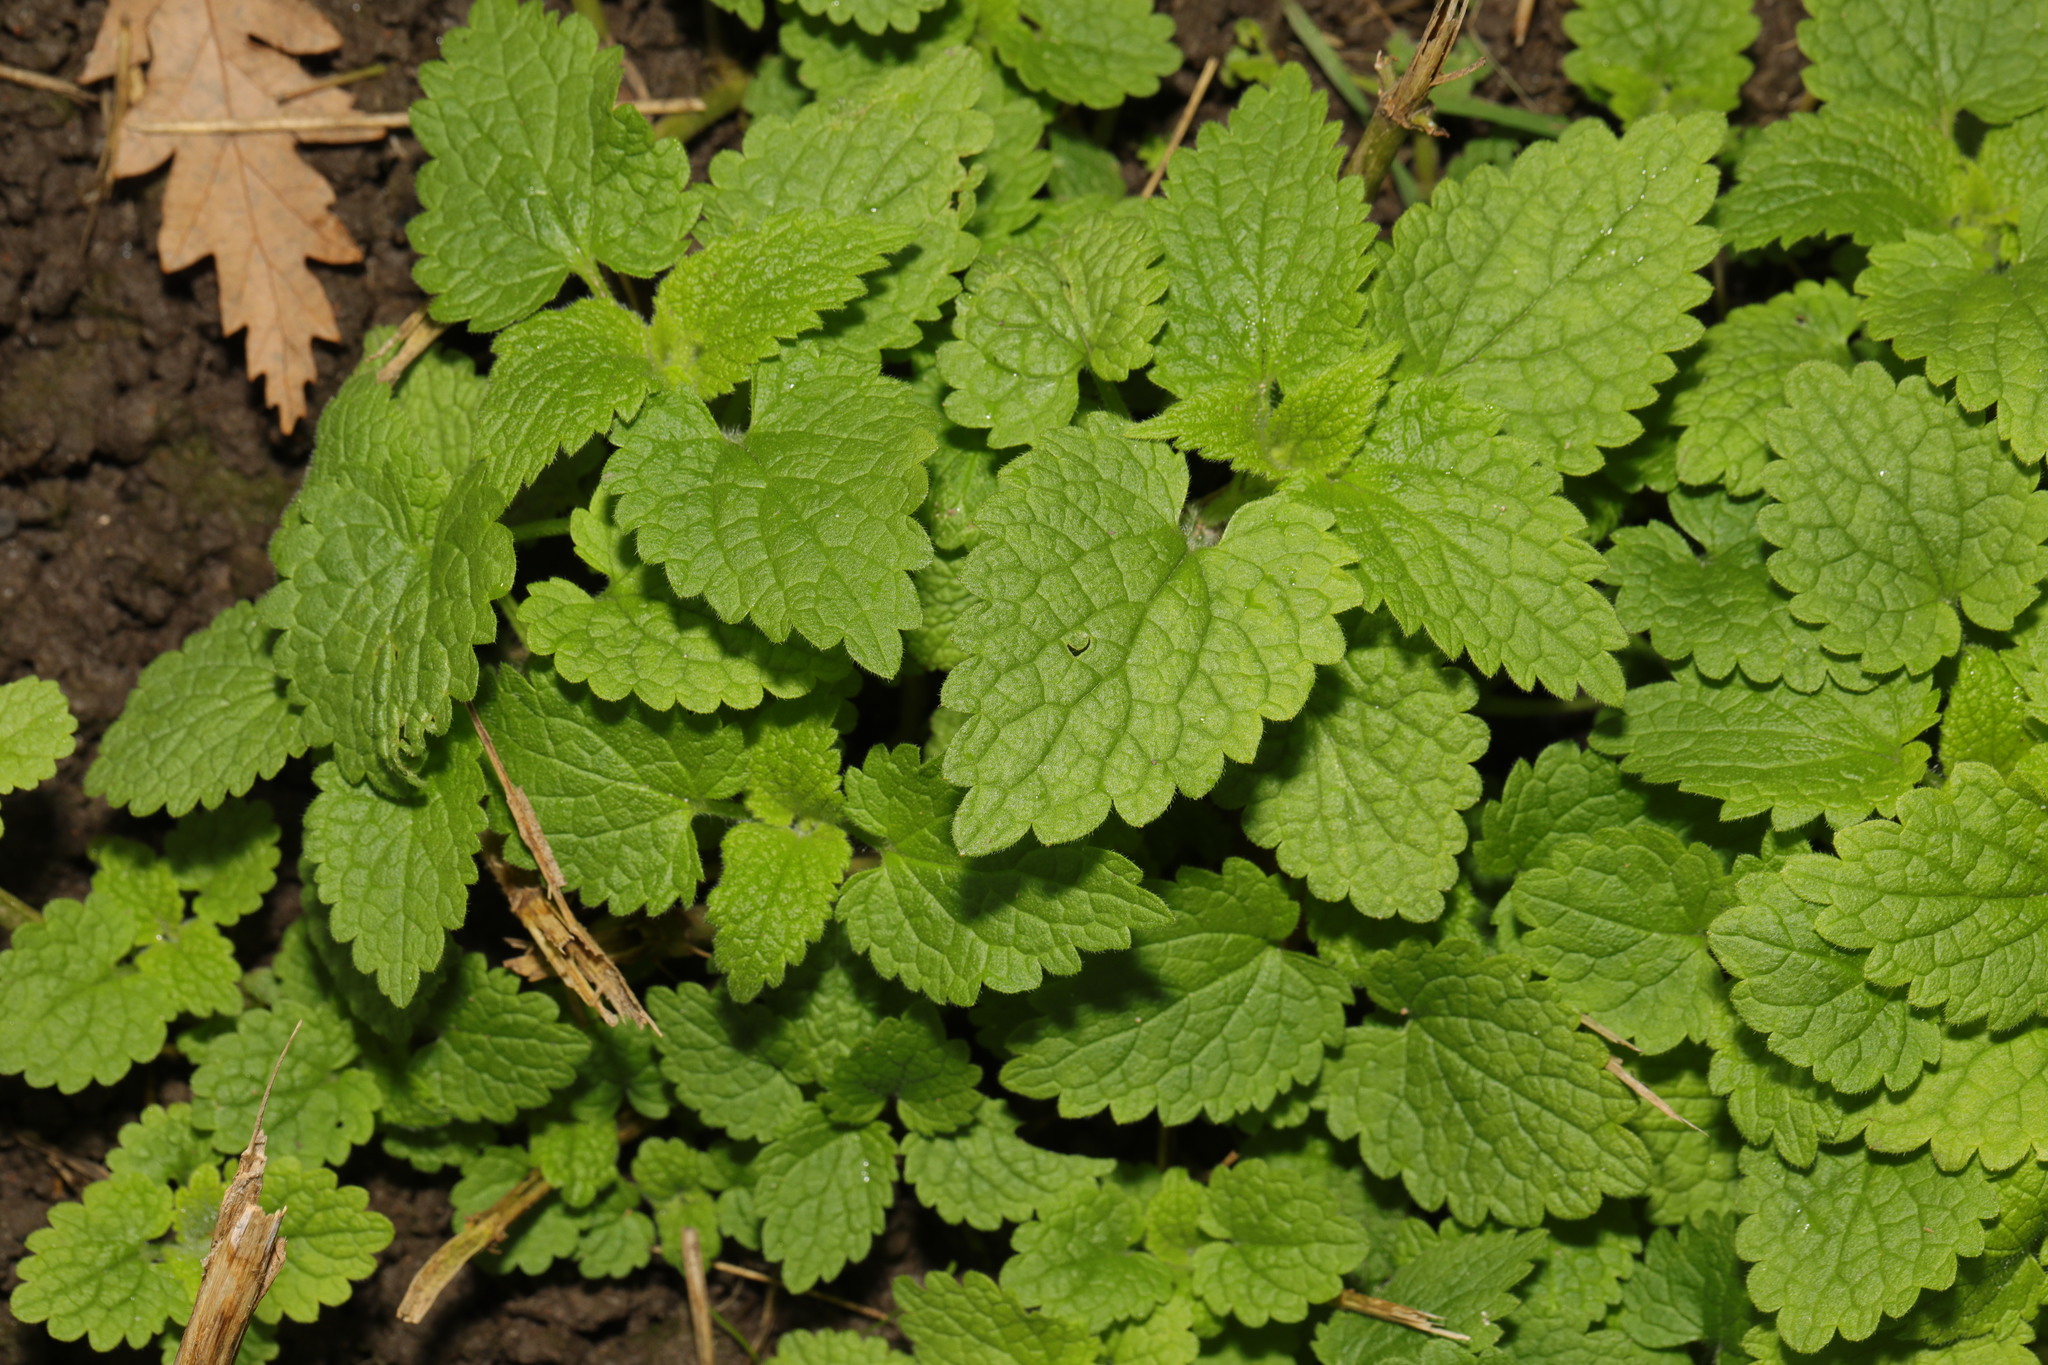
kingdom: Plantae
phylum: Tracheophyta
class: Magnoliopsida
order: Lamiales
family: Lamiaceae
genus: Melissa
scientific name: Melissa officinalis
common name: Balm
